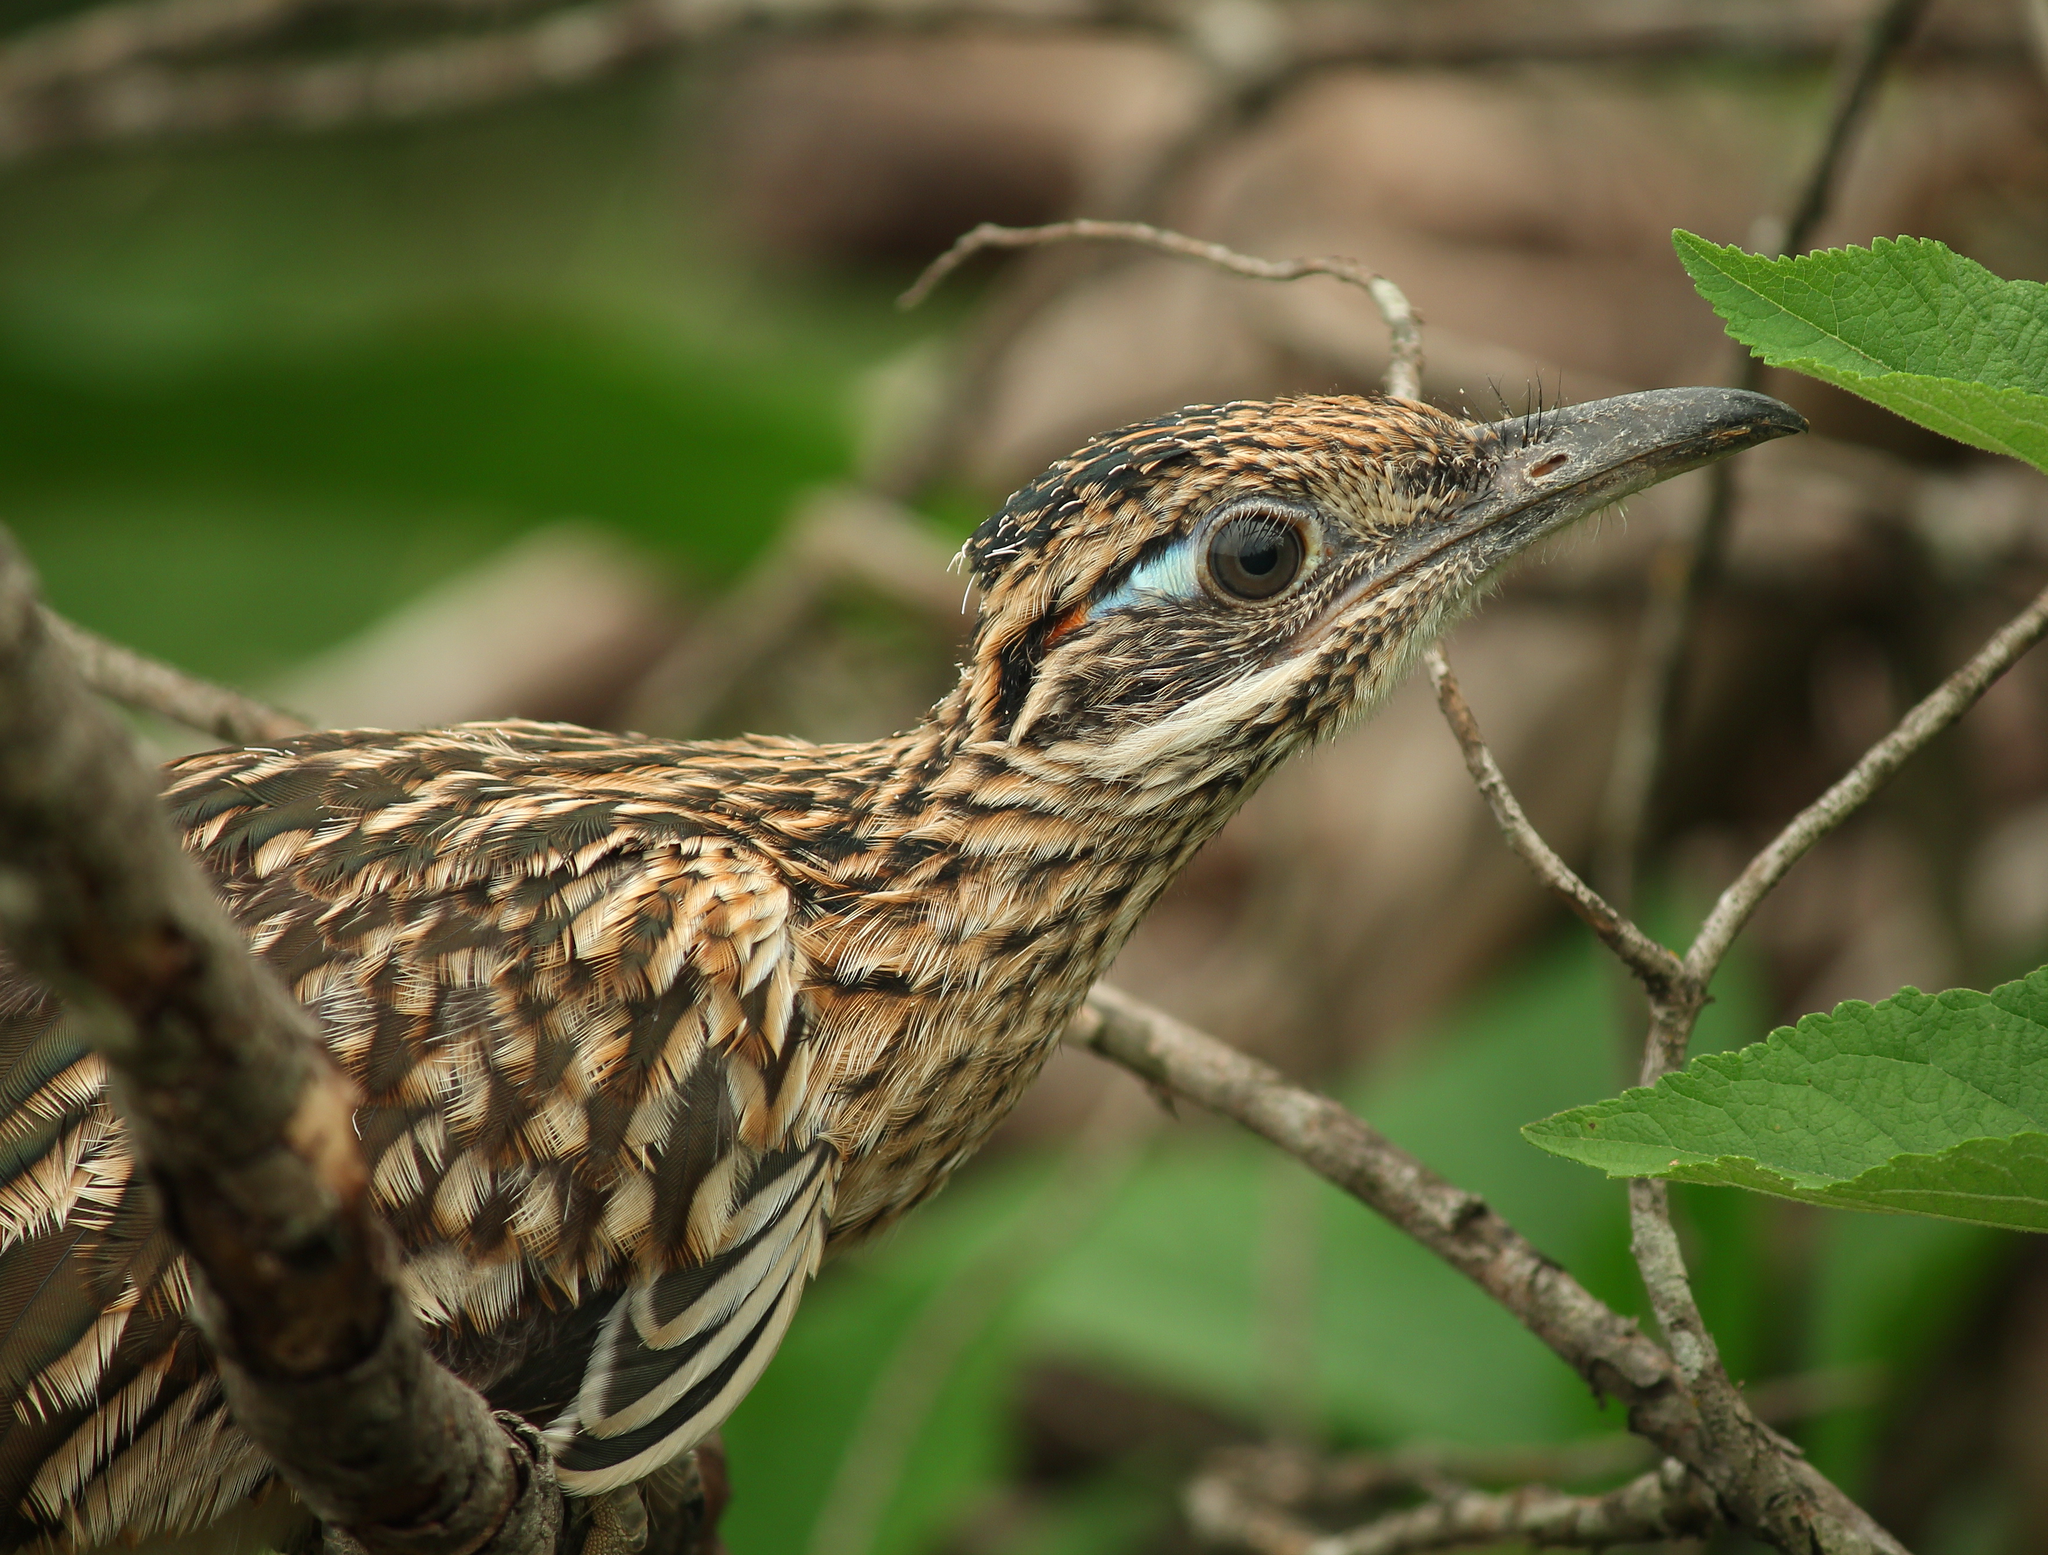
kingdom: Animalia
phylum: Chordata
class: Aves
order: Cuculiformes
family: Cuculidae
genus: Geococcyx
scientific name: Geococcyx californianus
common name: Greater roadrunner
